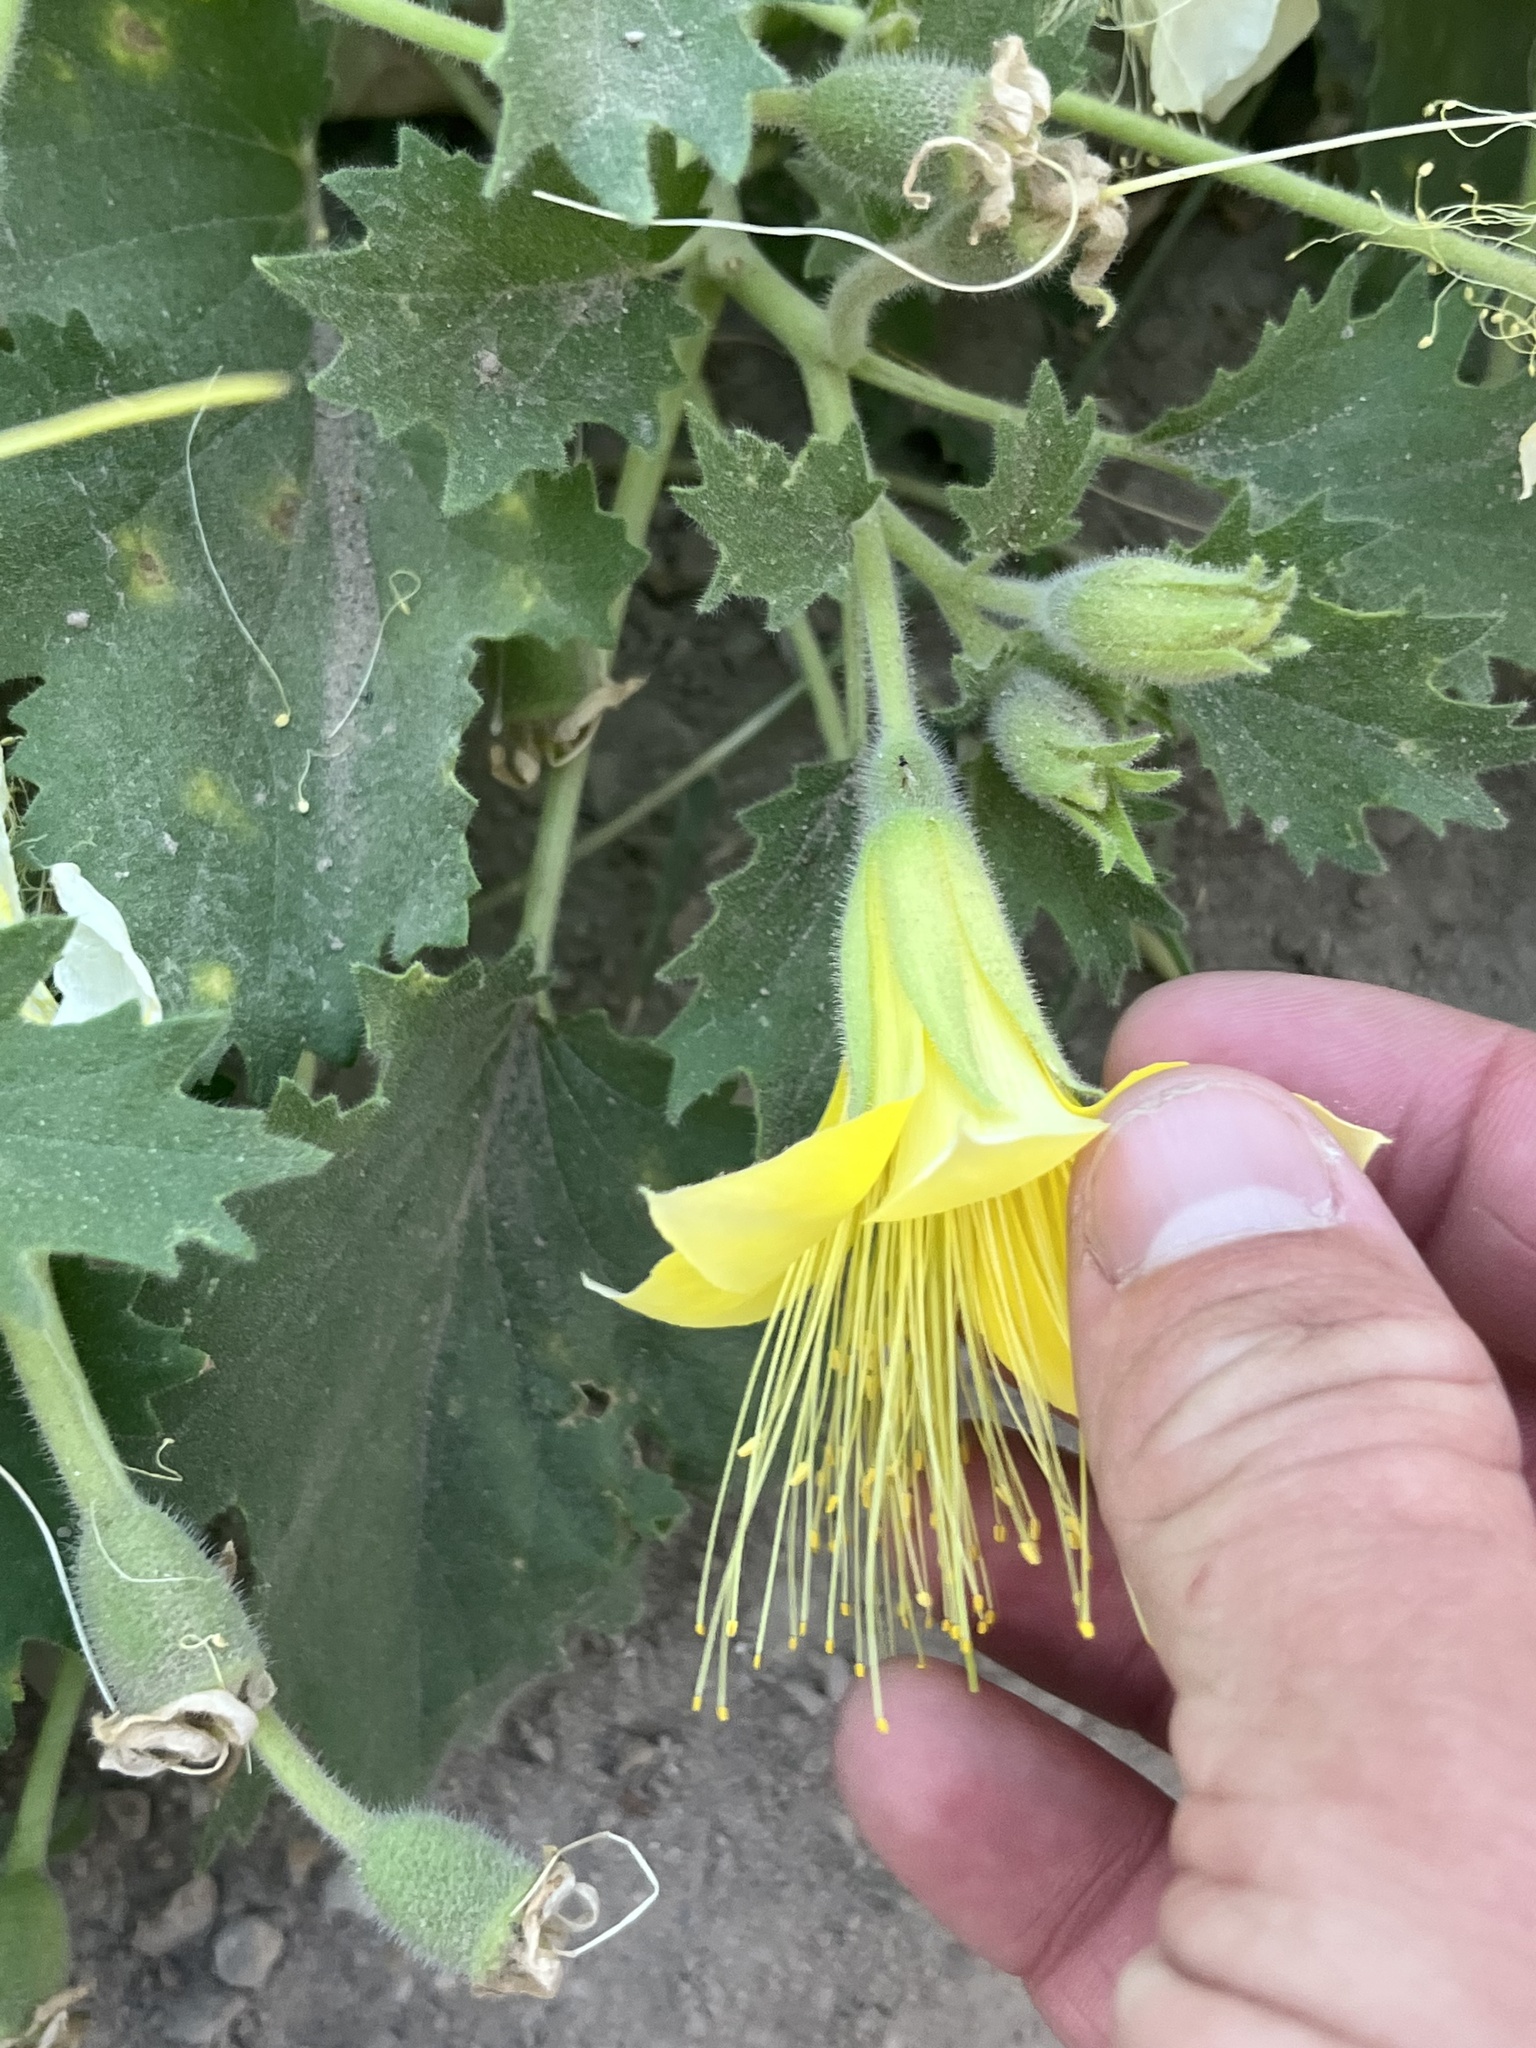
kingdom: Plantae
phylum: Tracheophyta
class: Magnoliopsida
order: Cornales
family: Loasaceae
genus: Eucnide
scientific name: Eucnide bartonioides
